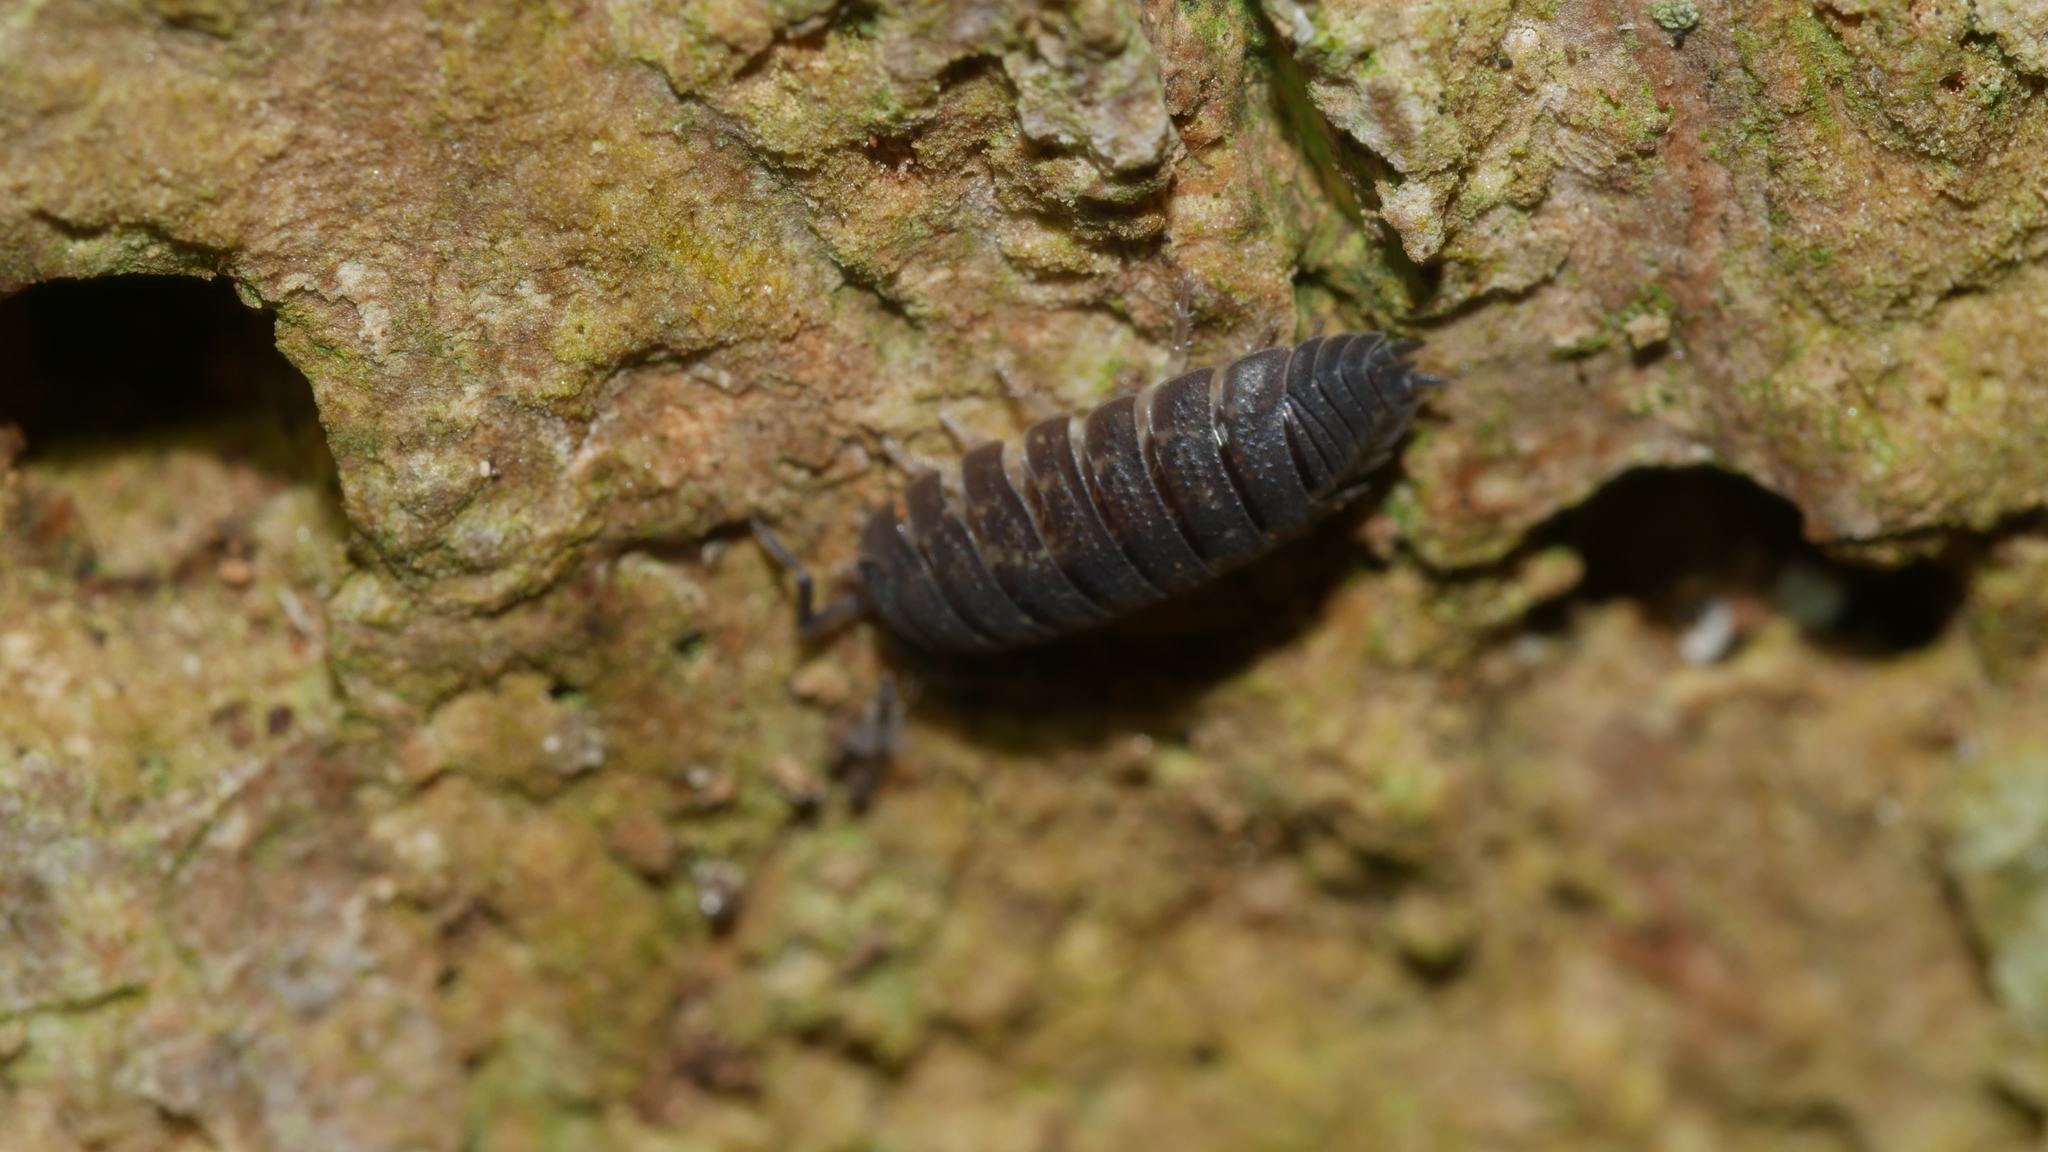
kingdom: Animalia
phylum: Arthropoda
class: Malacostraca
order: Isopoda
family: Porcellionidae
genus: Porcellio
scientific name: Porcellio scaber
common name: Common rough woodlouse
